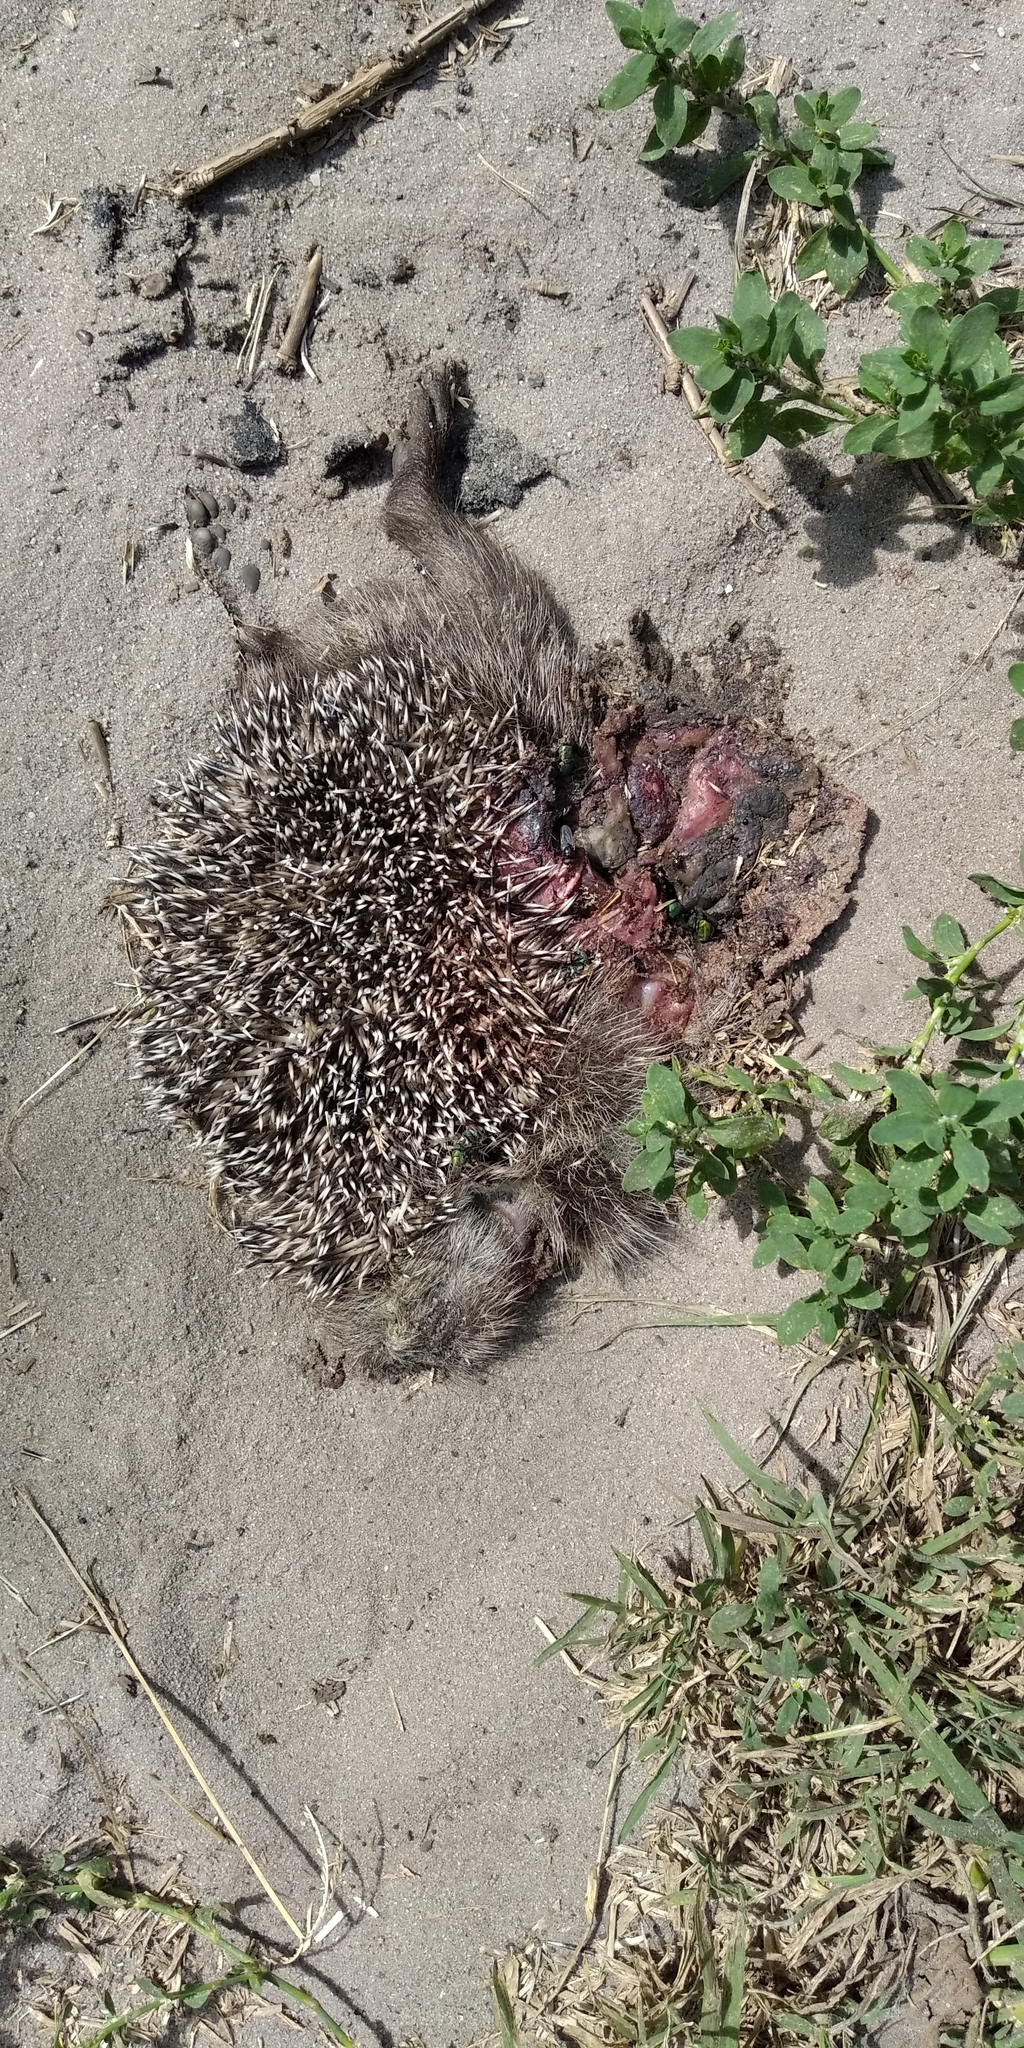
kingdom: Animalia
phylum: Chordata
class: Mammalia
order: Erinaceomorpha
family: Erinaceidae
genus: Erinaceus
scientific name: Erinaceus roumanicus
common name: Northern white-breasted hedgehog
